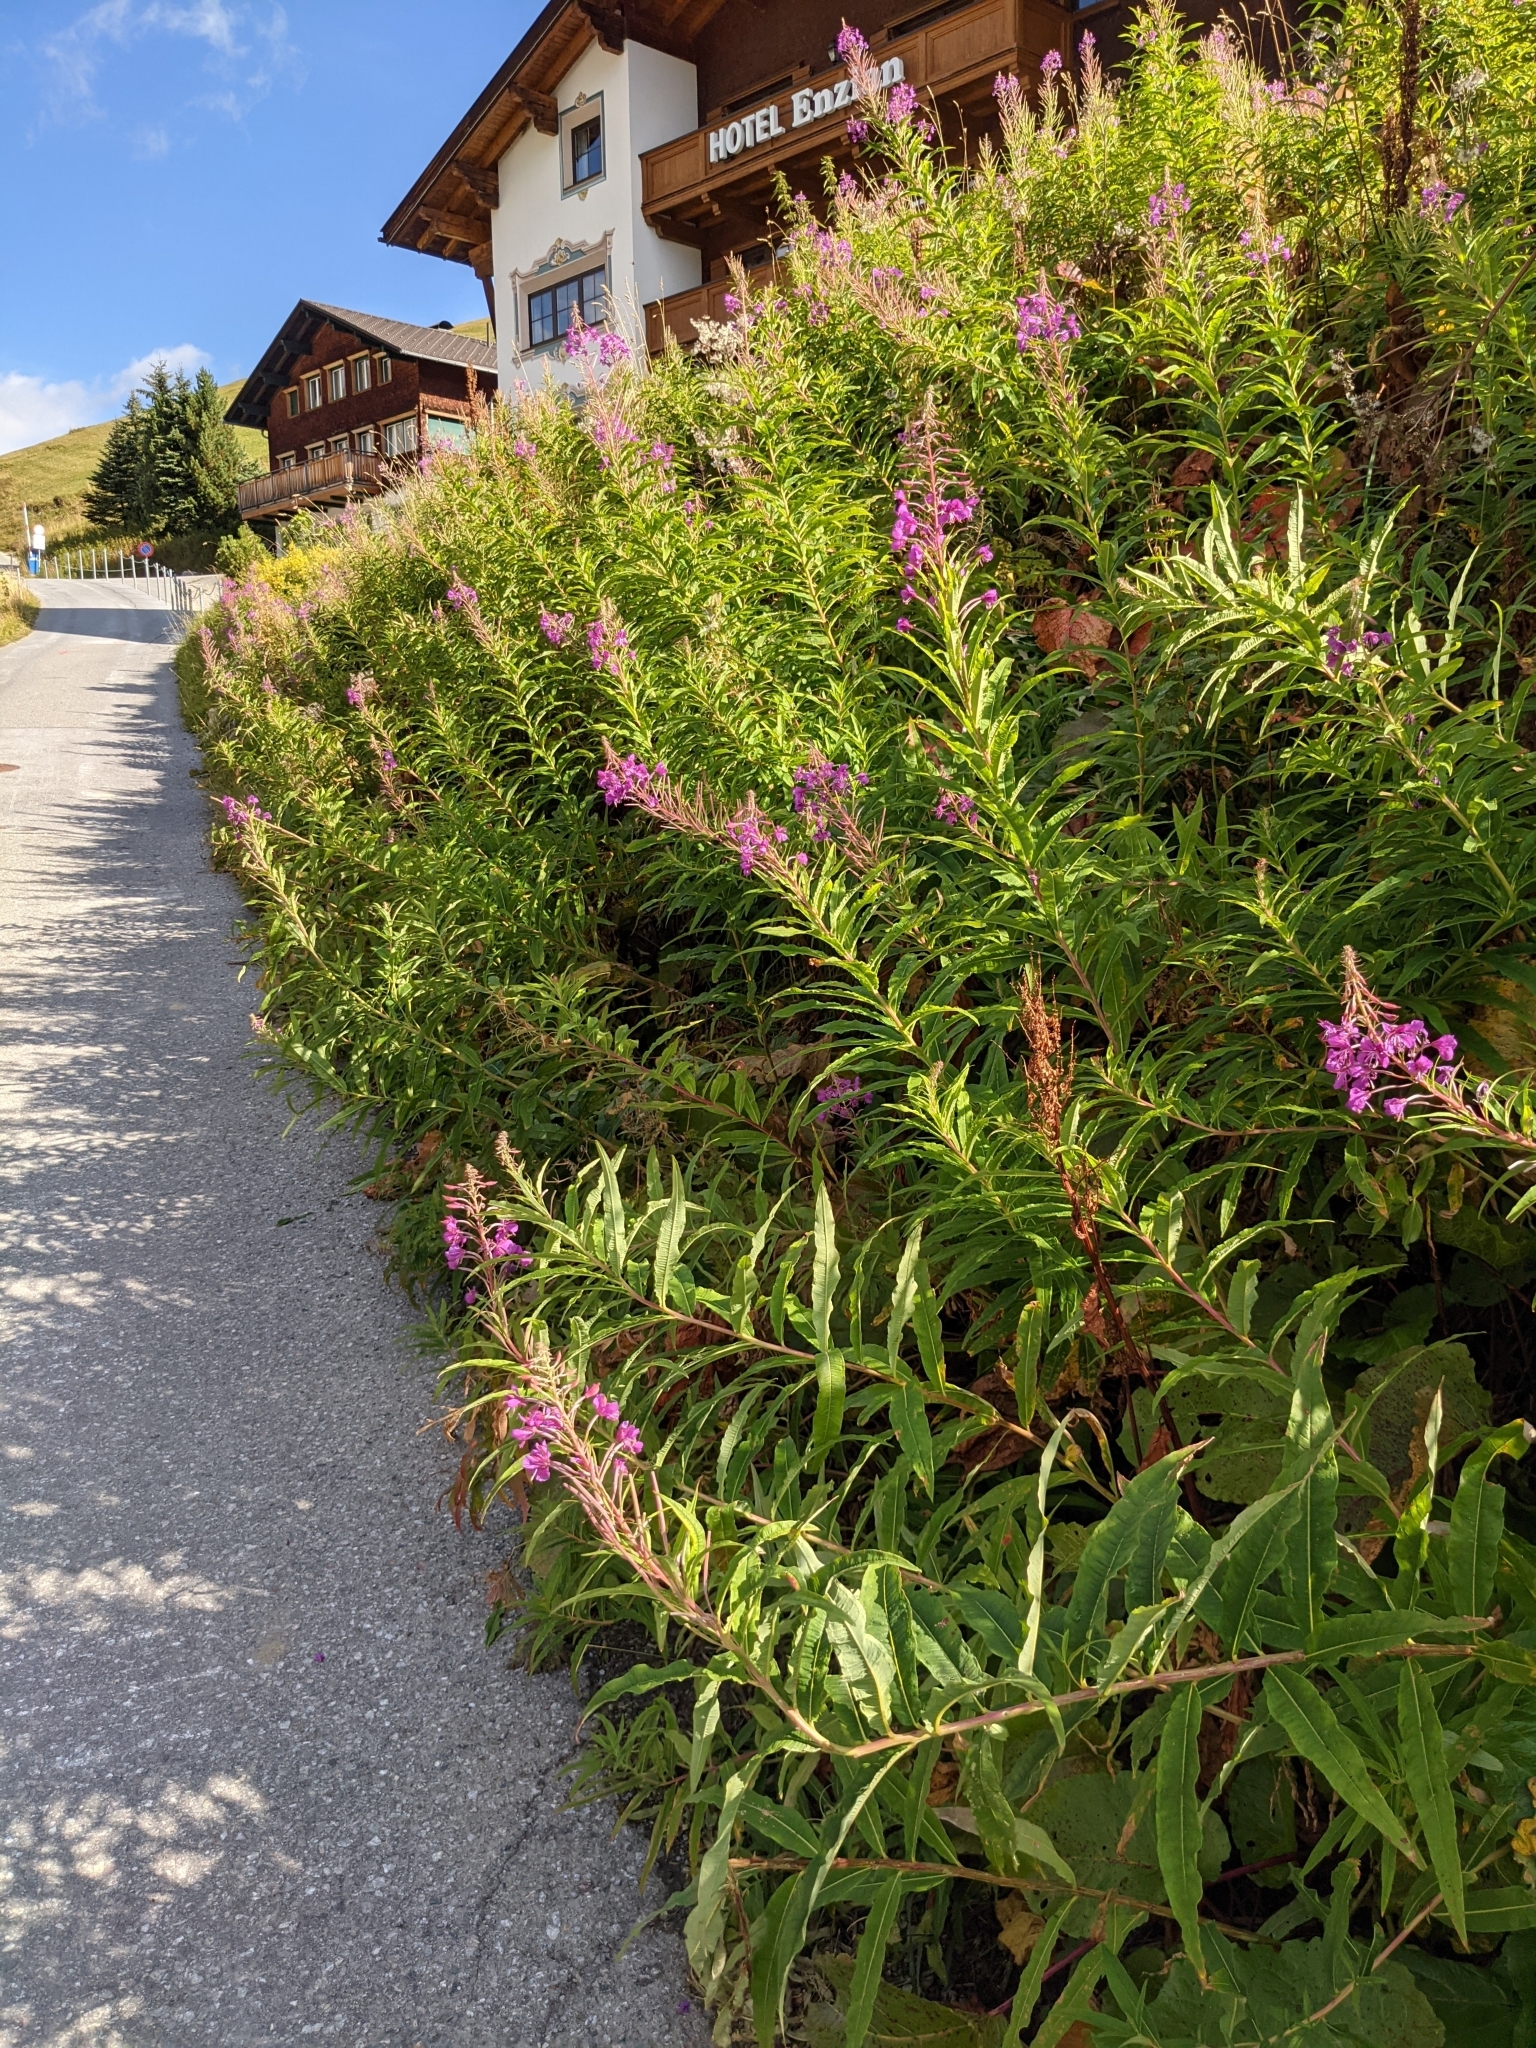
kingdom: Plantae
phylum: Tracheophyta
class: Magnoliopsida
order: Myrtales
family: Onagraceae
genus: Chamaenerion
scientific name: Chamaenerion angustifolium
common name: Fireweed
